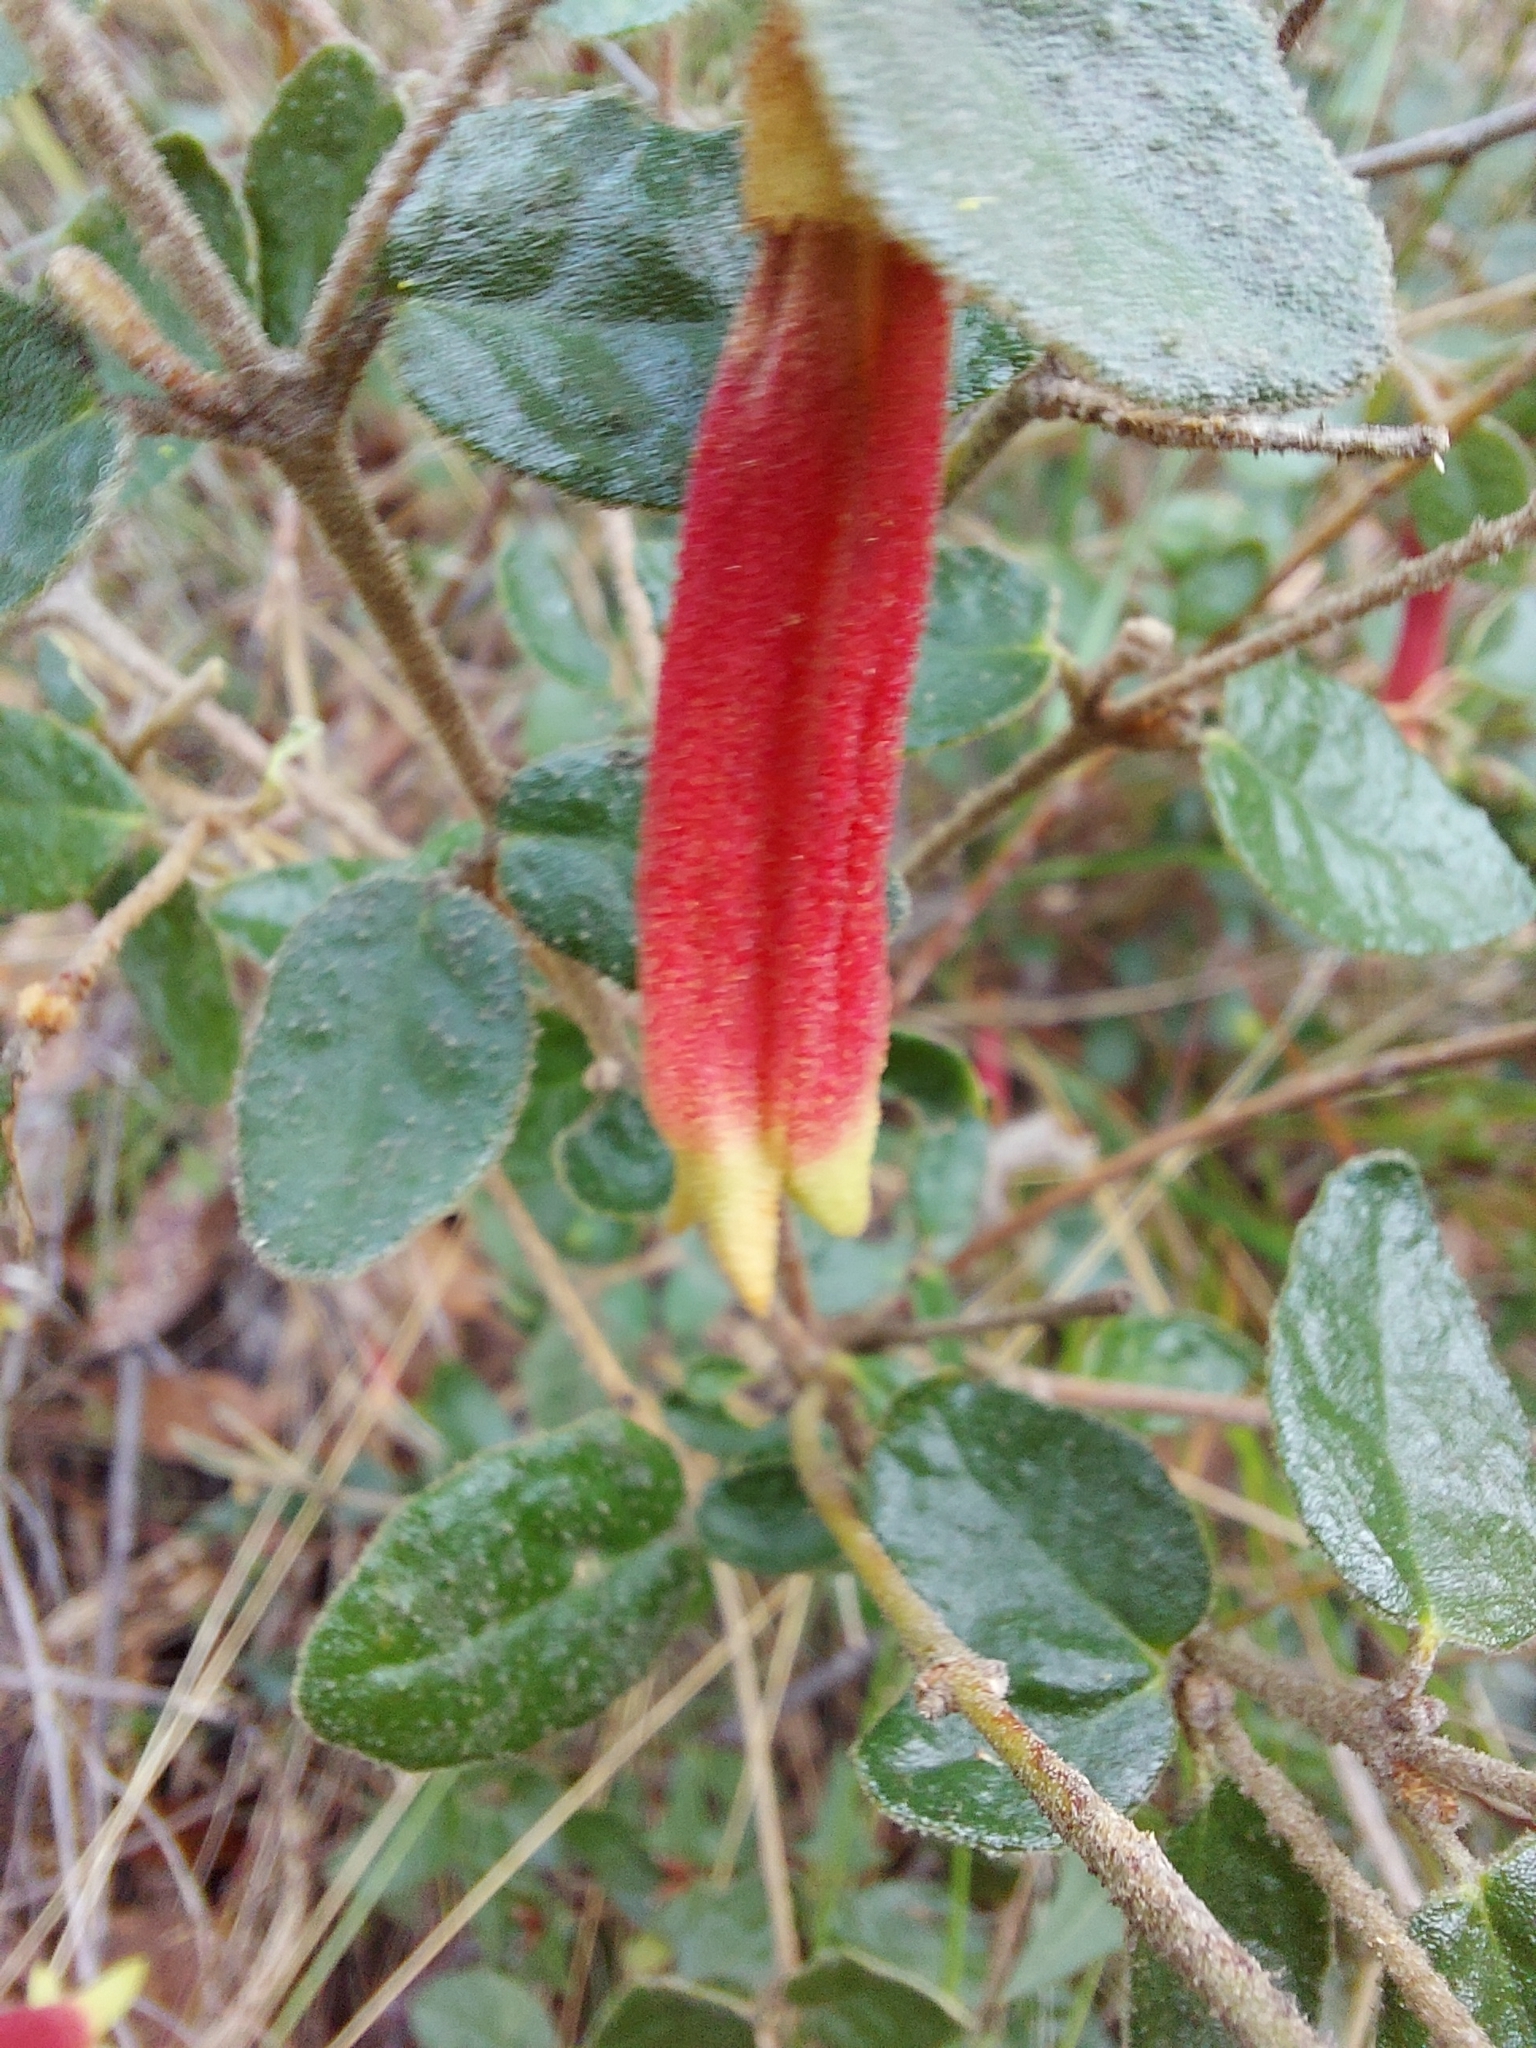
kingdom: Plantae
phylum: Tracheophyta
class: Magnoliopsida
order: Sapindales
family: Rutaceae
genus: Correa
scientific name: Correa reflexa
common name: Common correa
